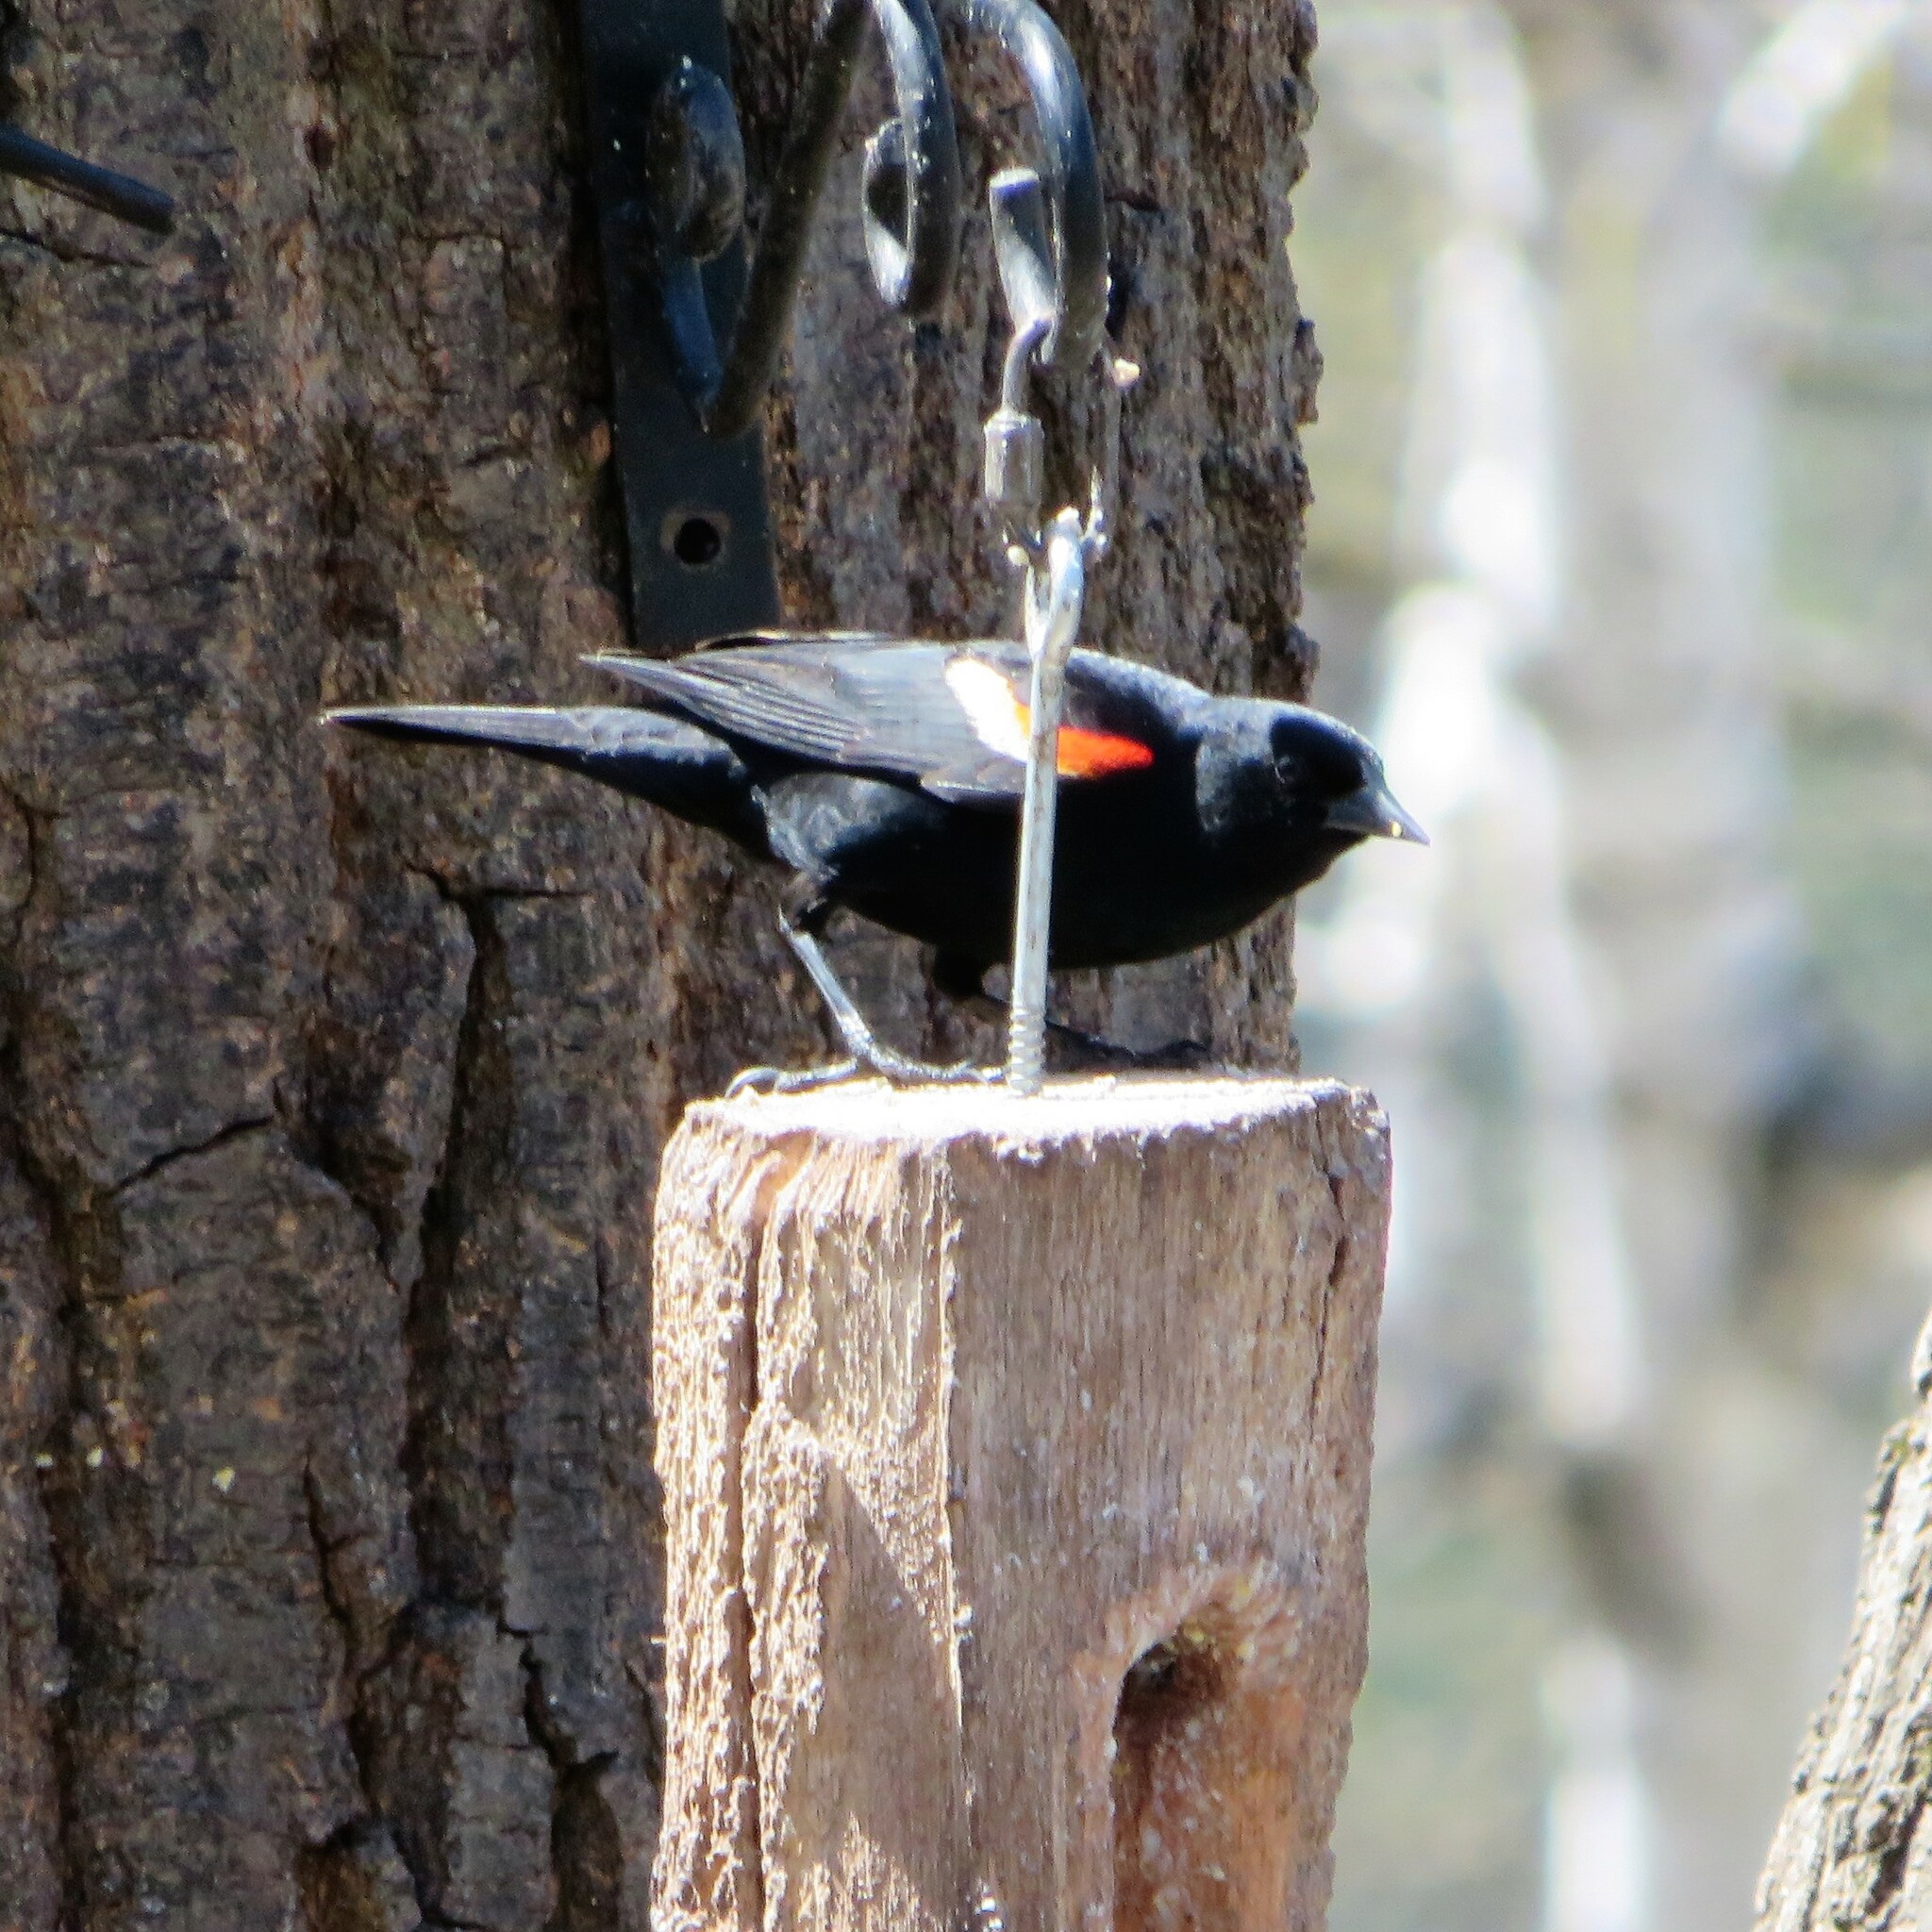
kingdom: Animalia
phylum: Chordata
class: Aves
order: Passeriformes
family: Icteridae
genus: Agelaius
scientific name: Agelaius phoeniceus
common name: Red-winged blackbird
